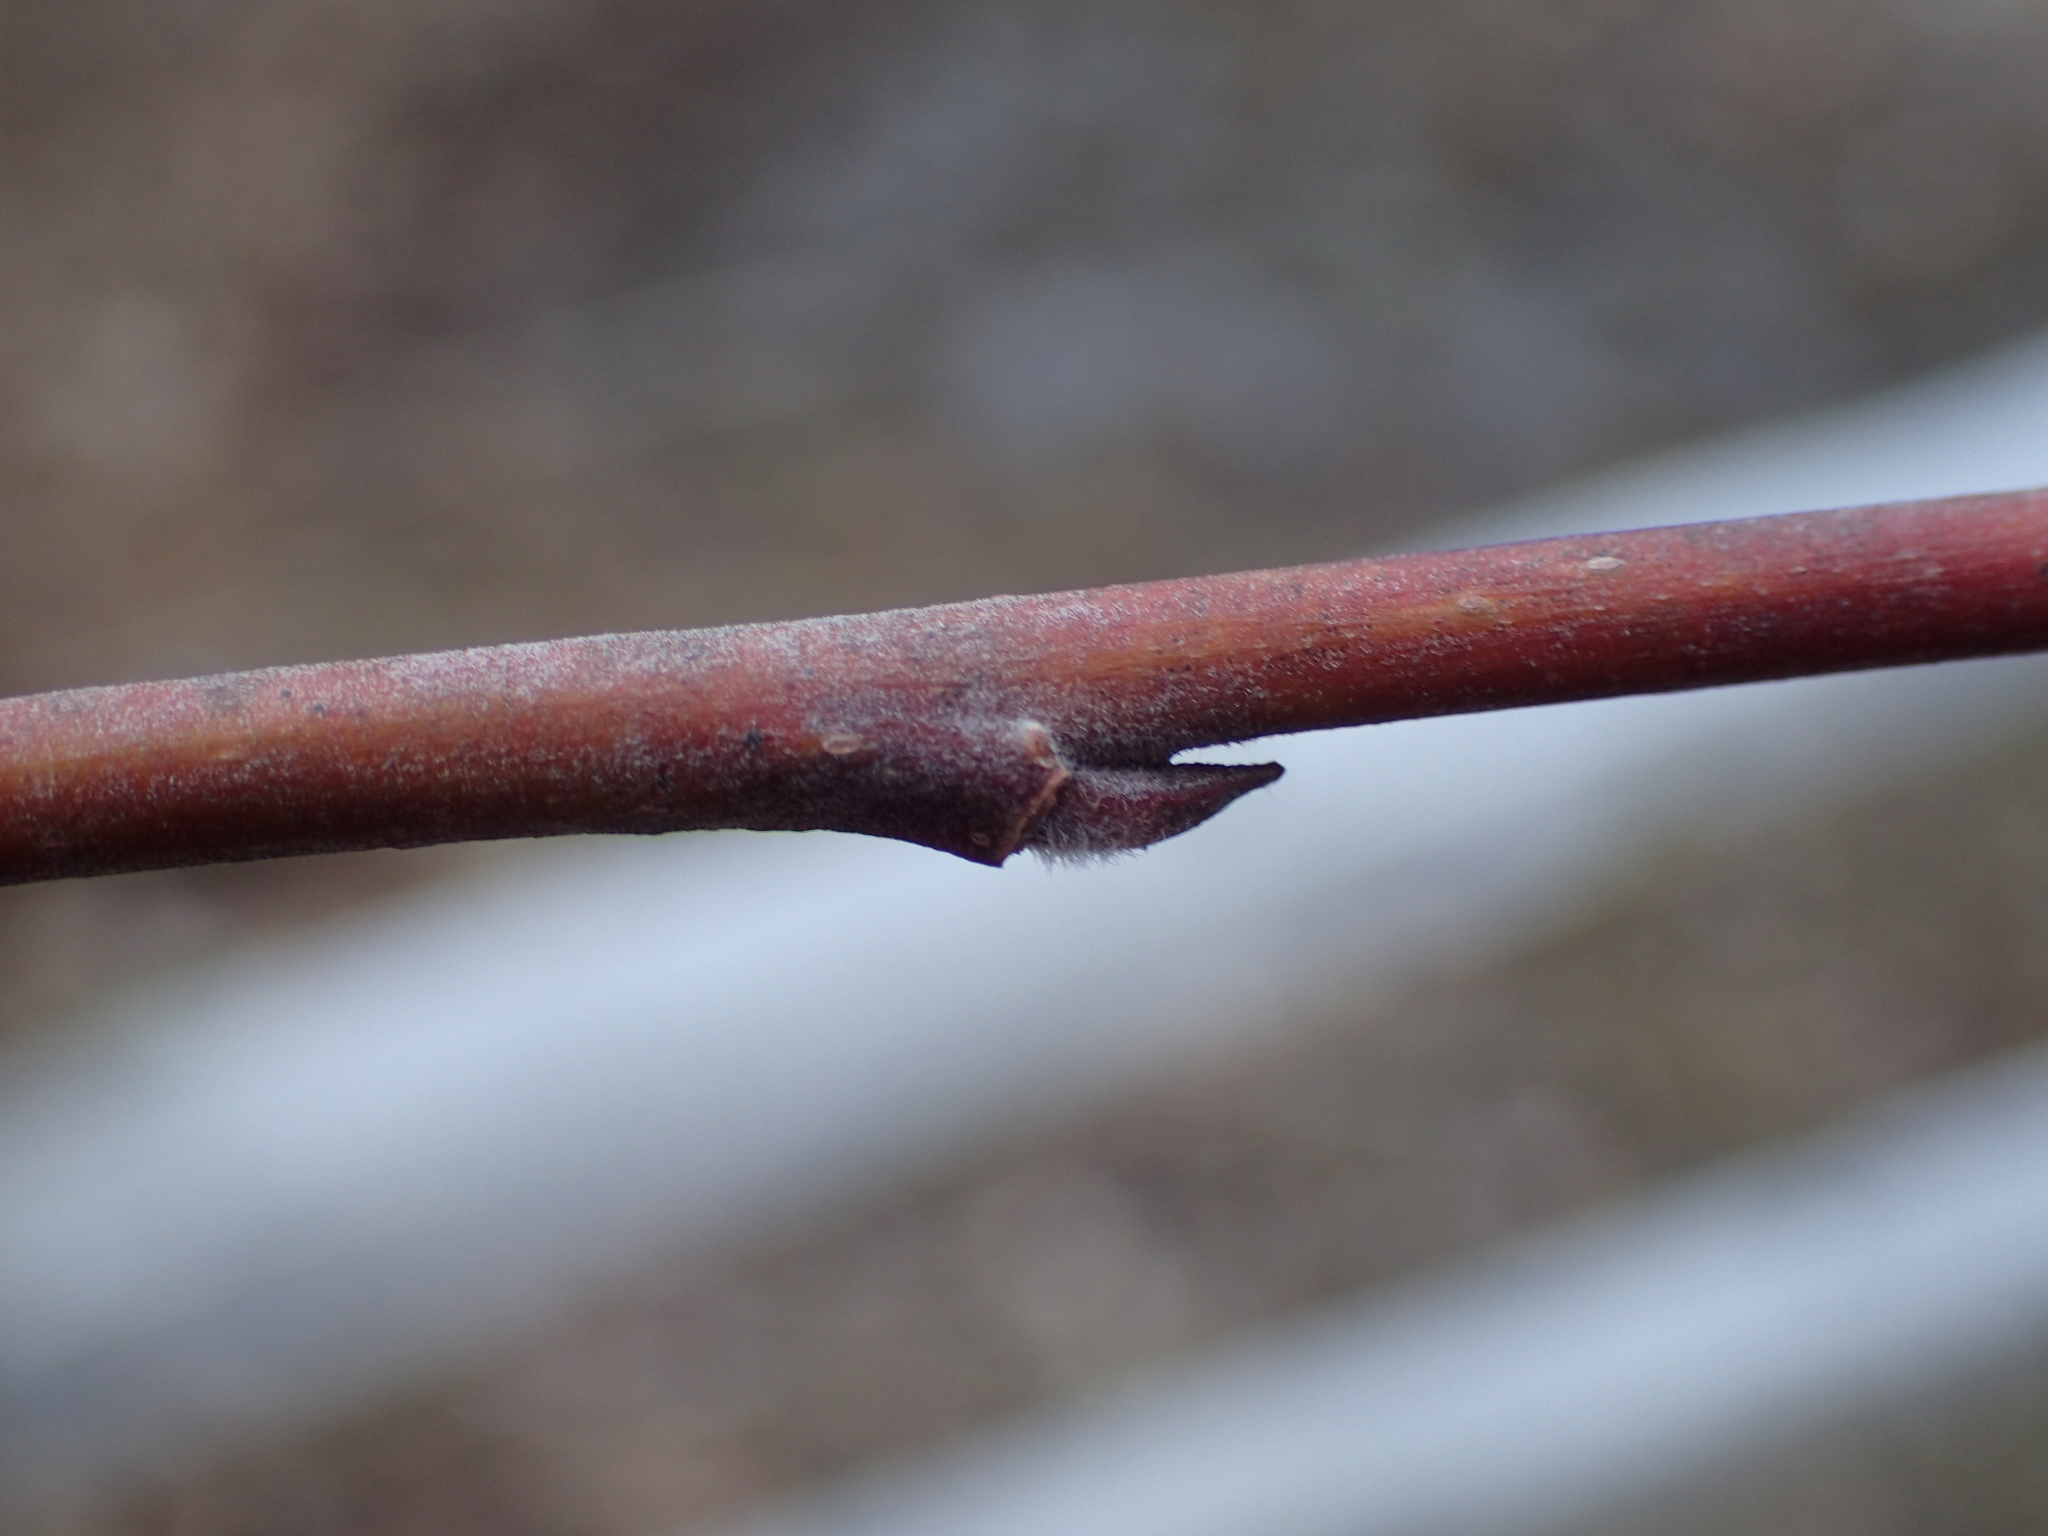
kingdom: Plantae
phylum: Tracheophyta
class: Magnoliopsida
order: Malpighiales
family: Salicaceae
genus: Salix
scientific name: Salix atrocinerea
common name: Rusty willow
